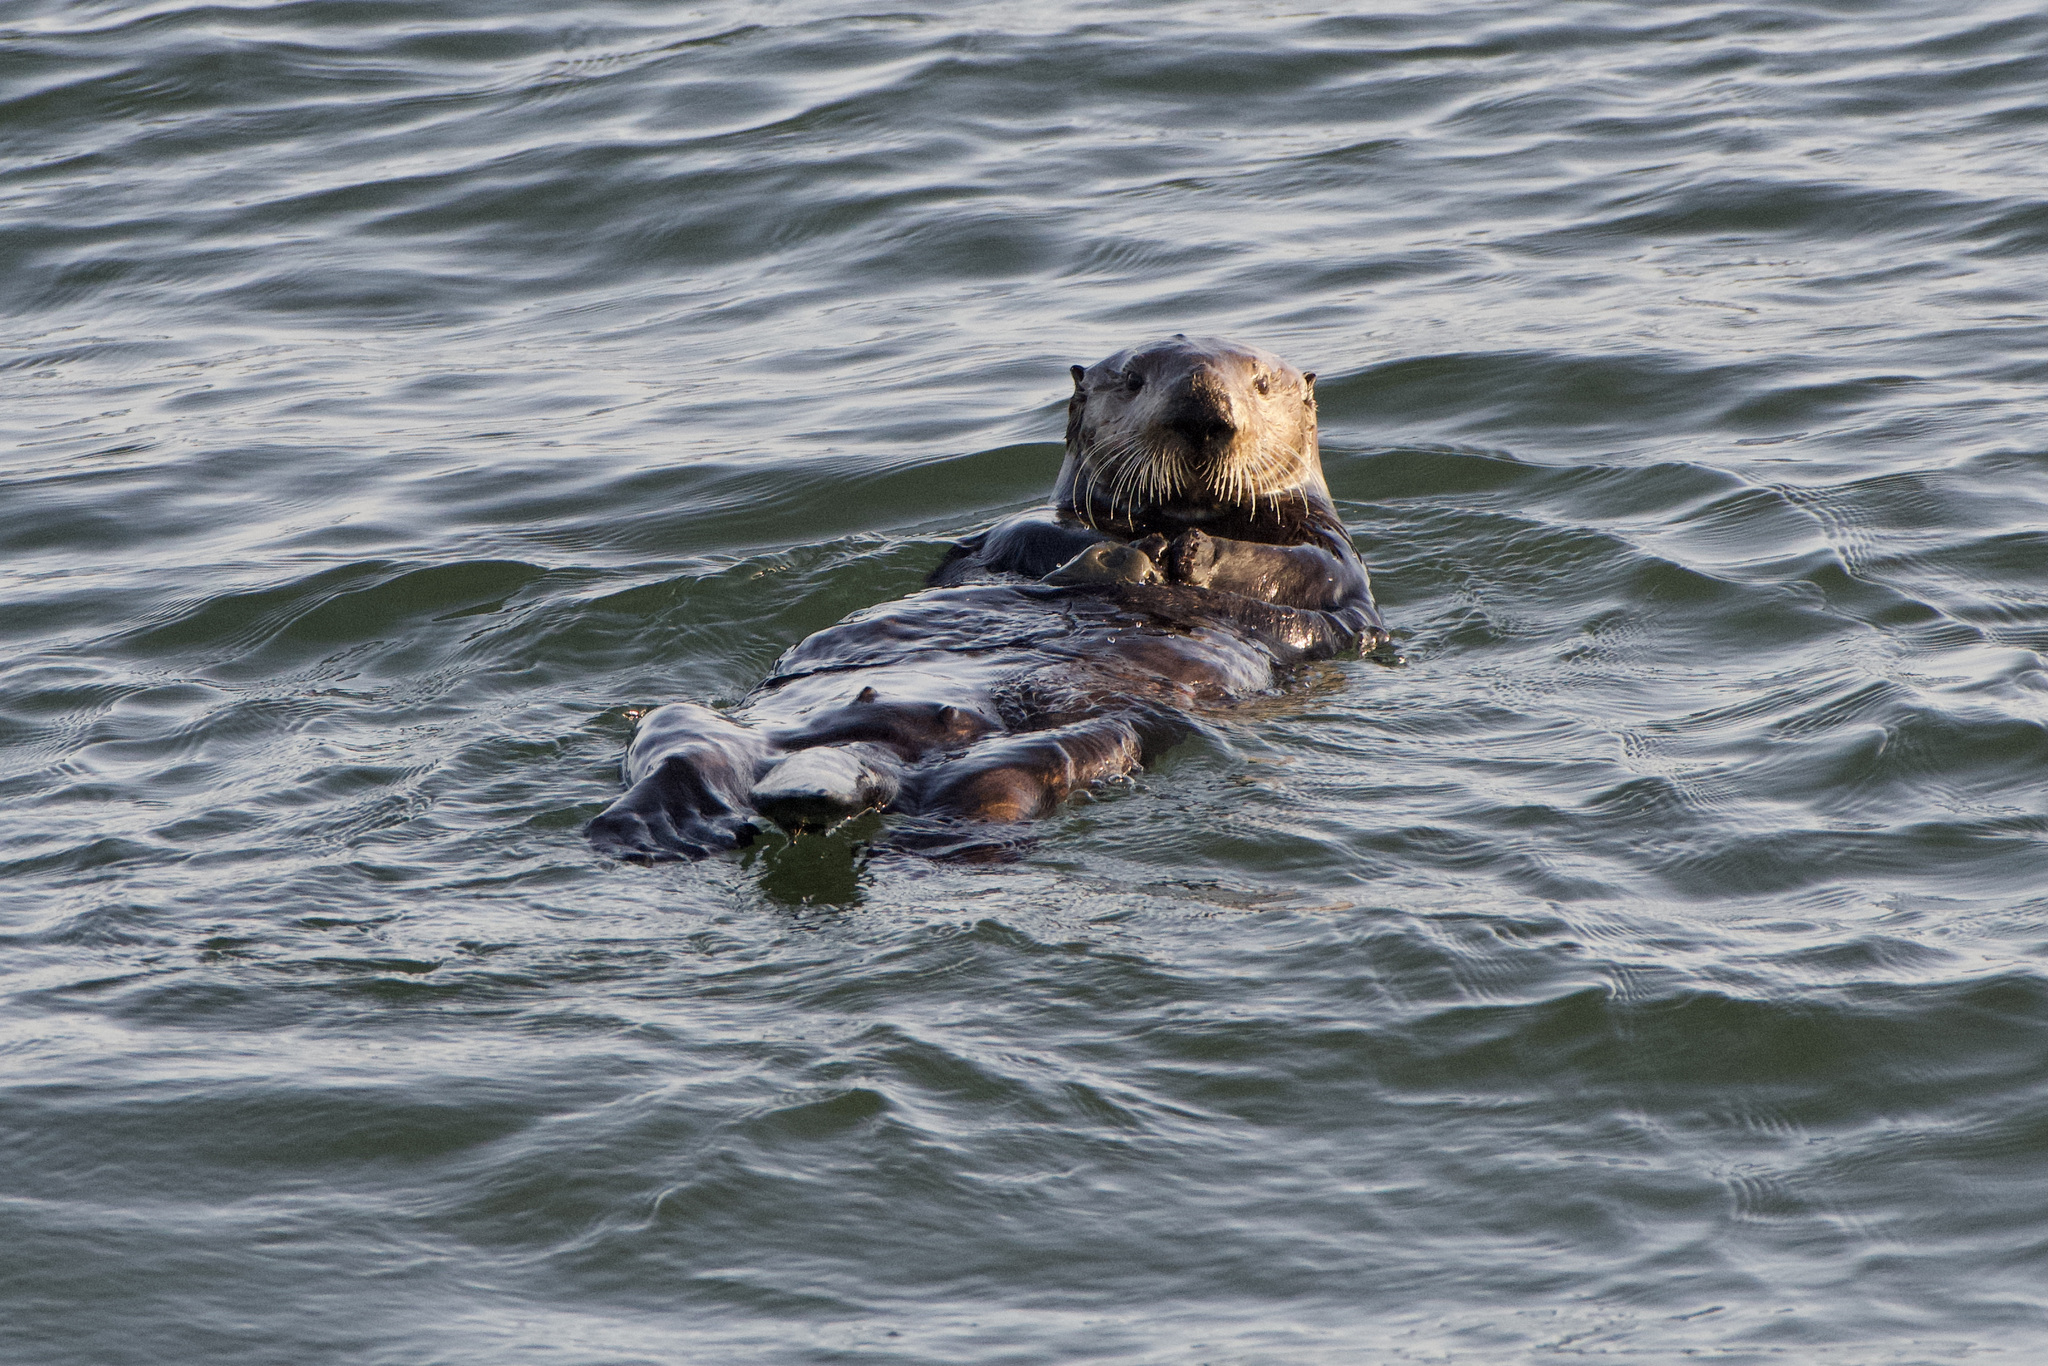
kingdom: Animalia
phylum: Chordata
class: Mammalia
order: Carnivora
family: Mustelidae
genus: Enhydra
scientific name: Enhydra lutris
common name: Sea otter
